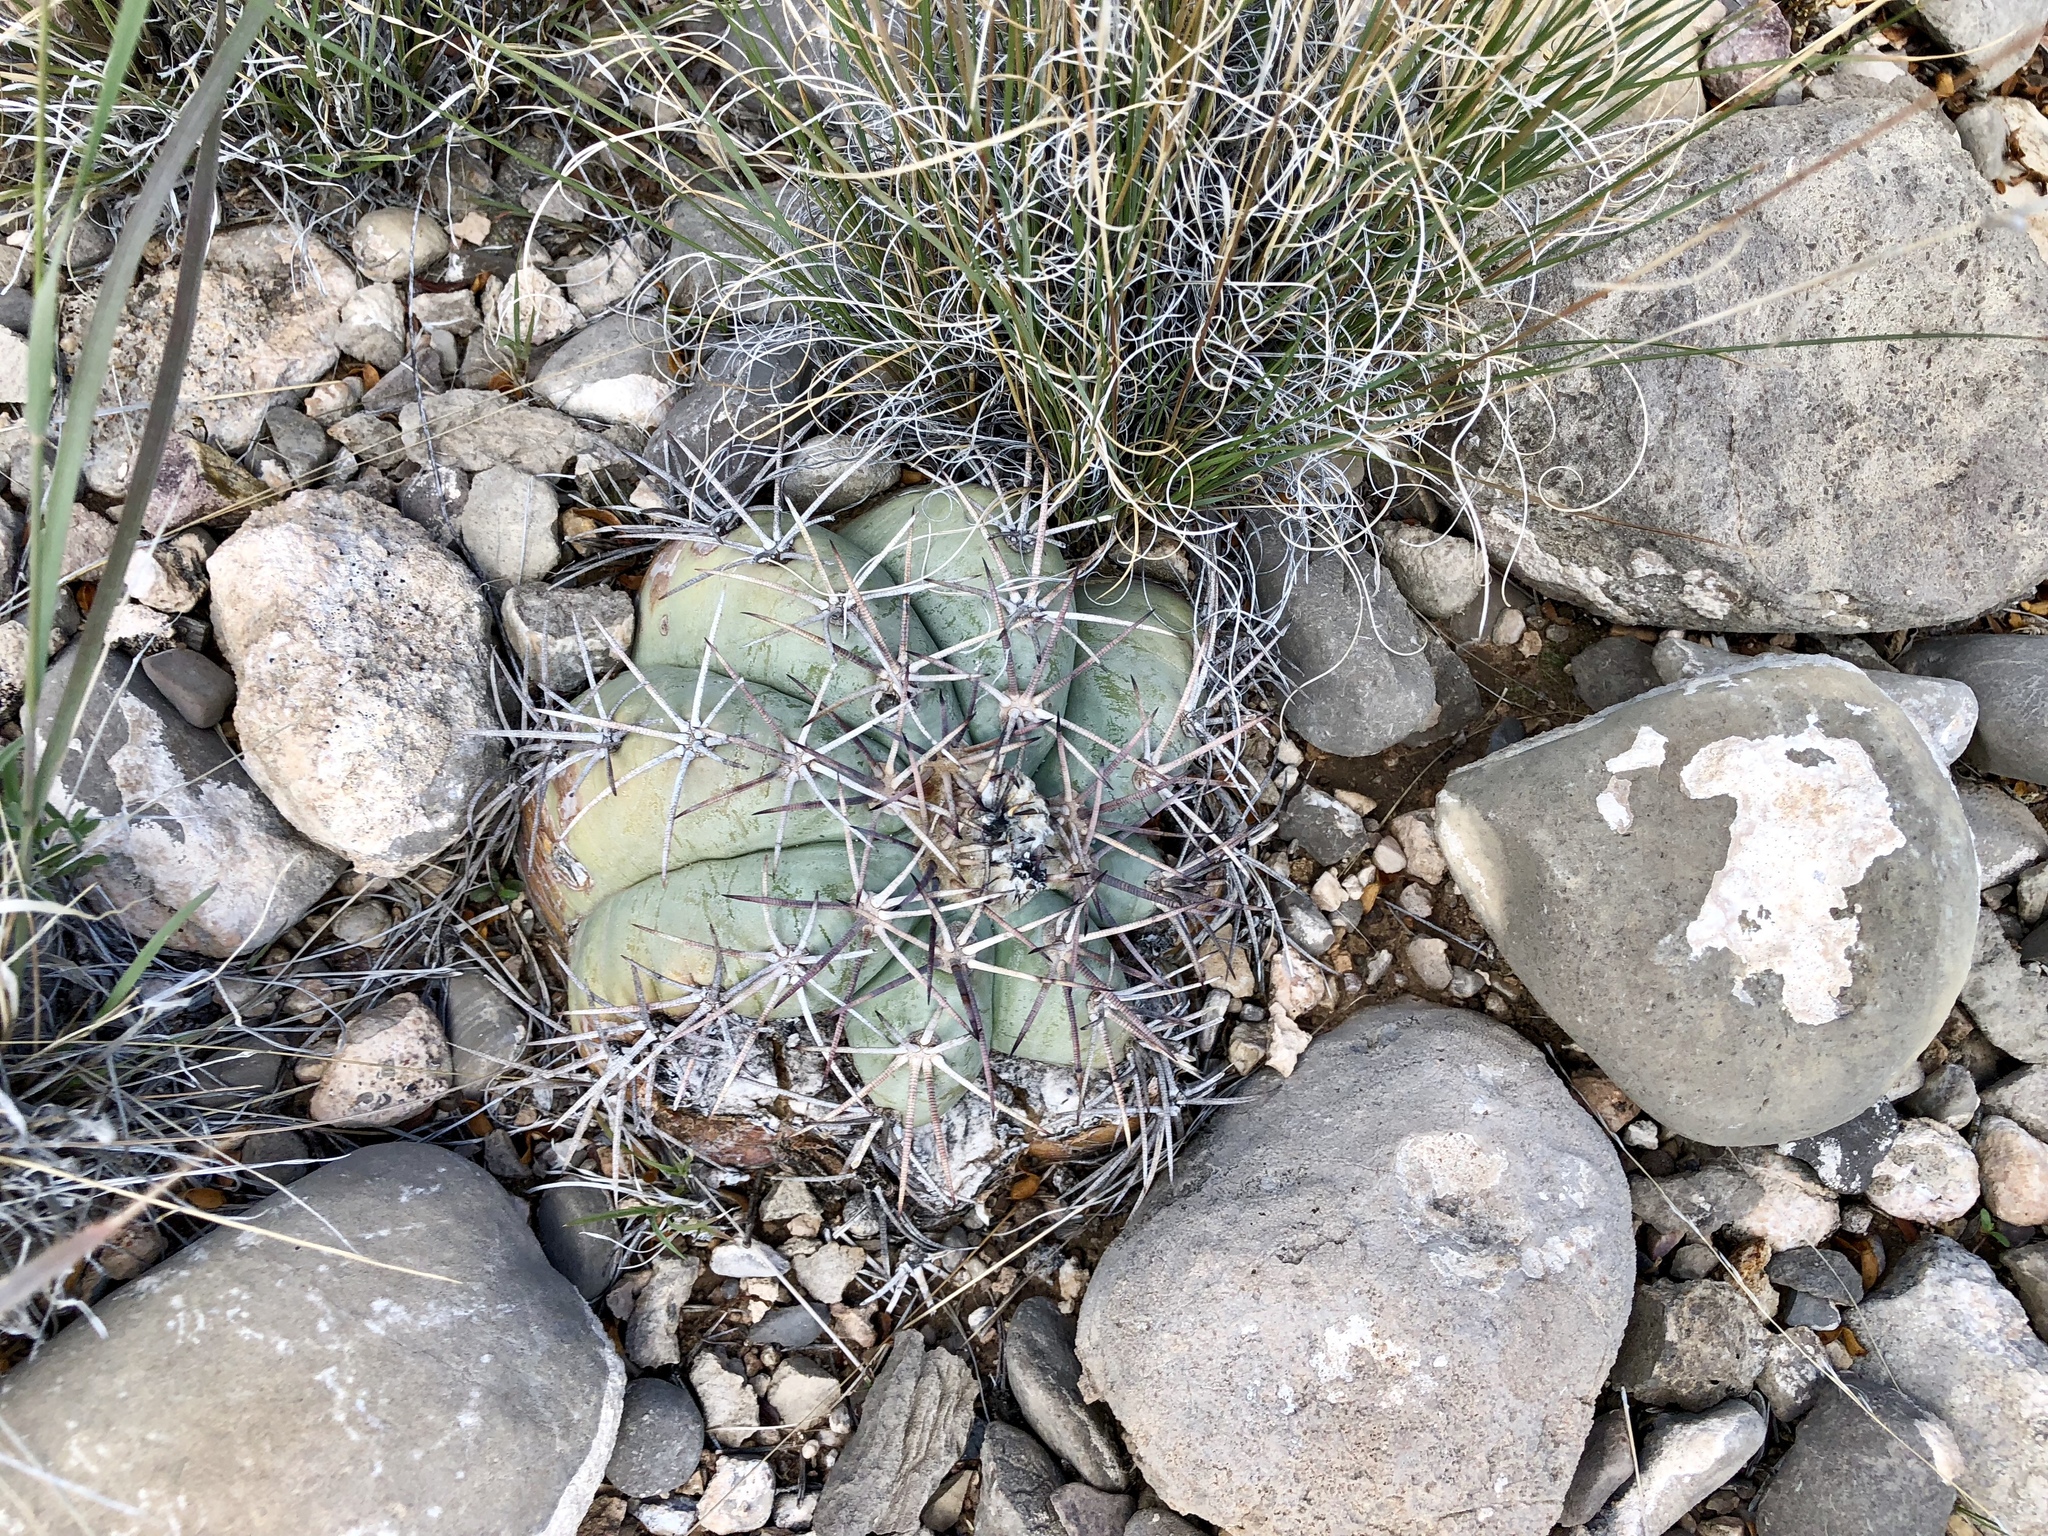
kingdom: Plantae
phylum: Tracheophyta
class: Magnoliopsida
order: Caryophyllales
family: Cactaceae
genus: Echinocactus
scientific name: Echinocactus horizonthalonius
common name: Devilshead
